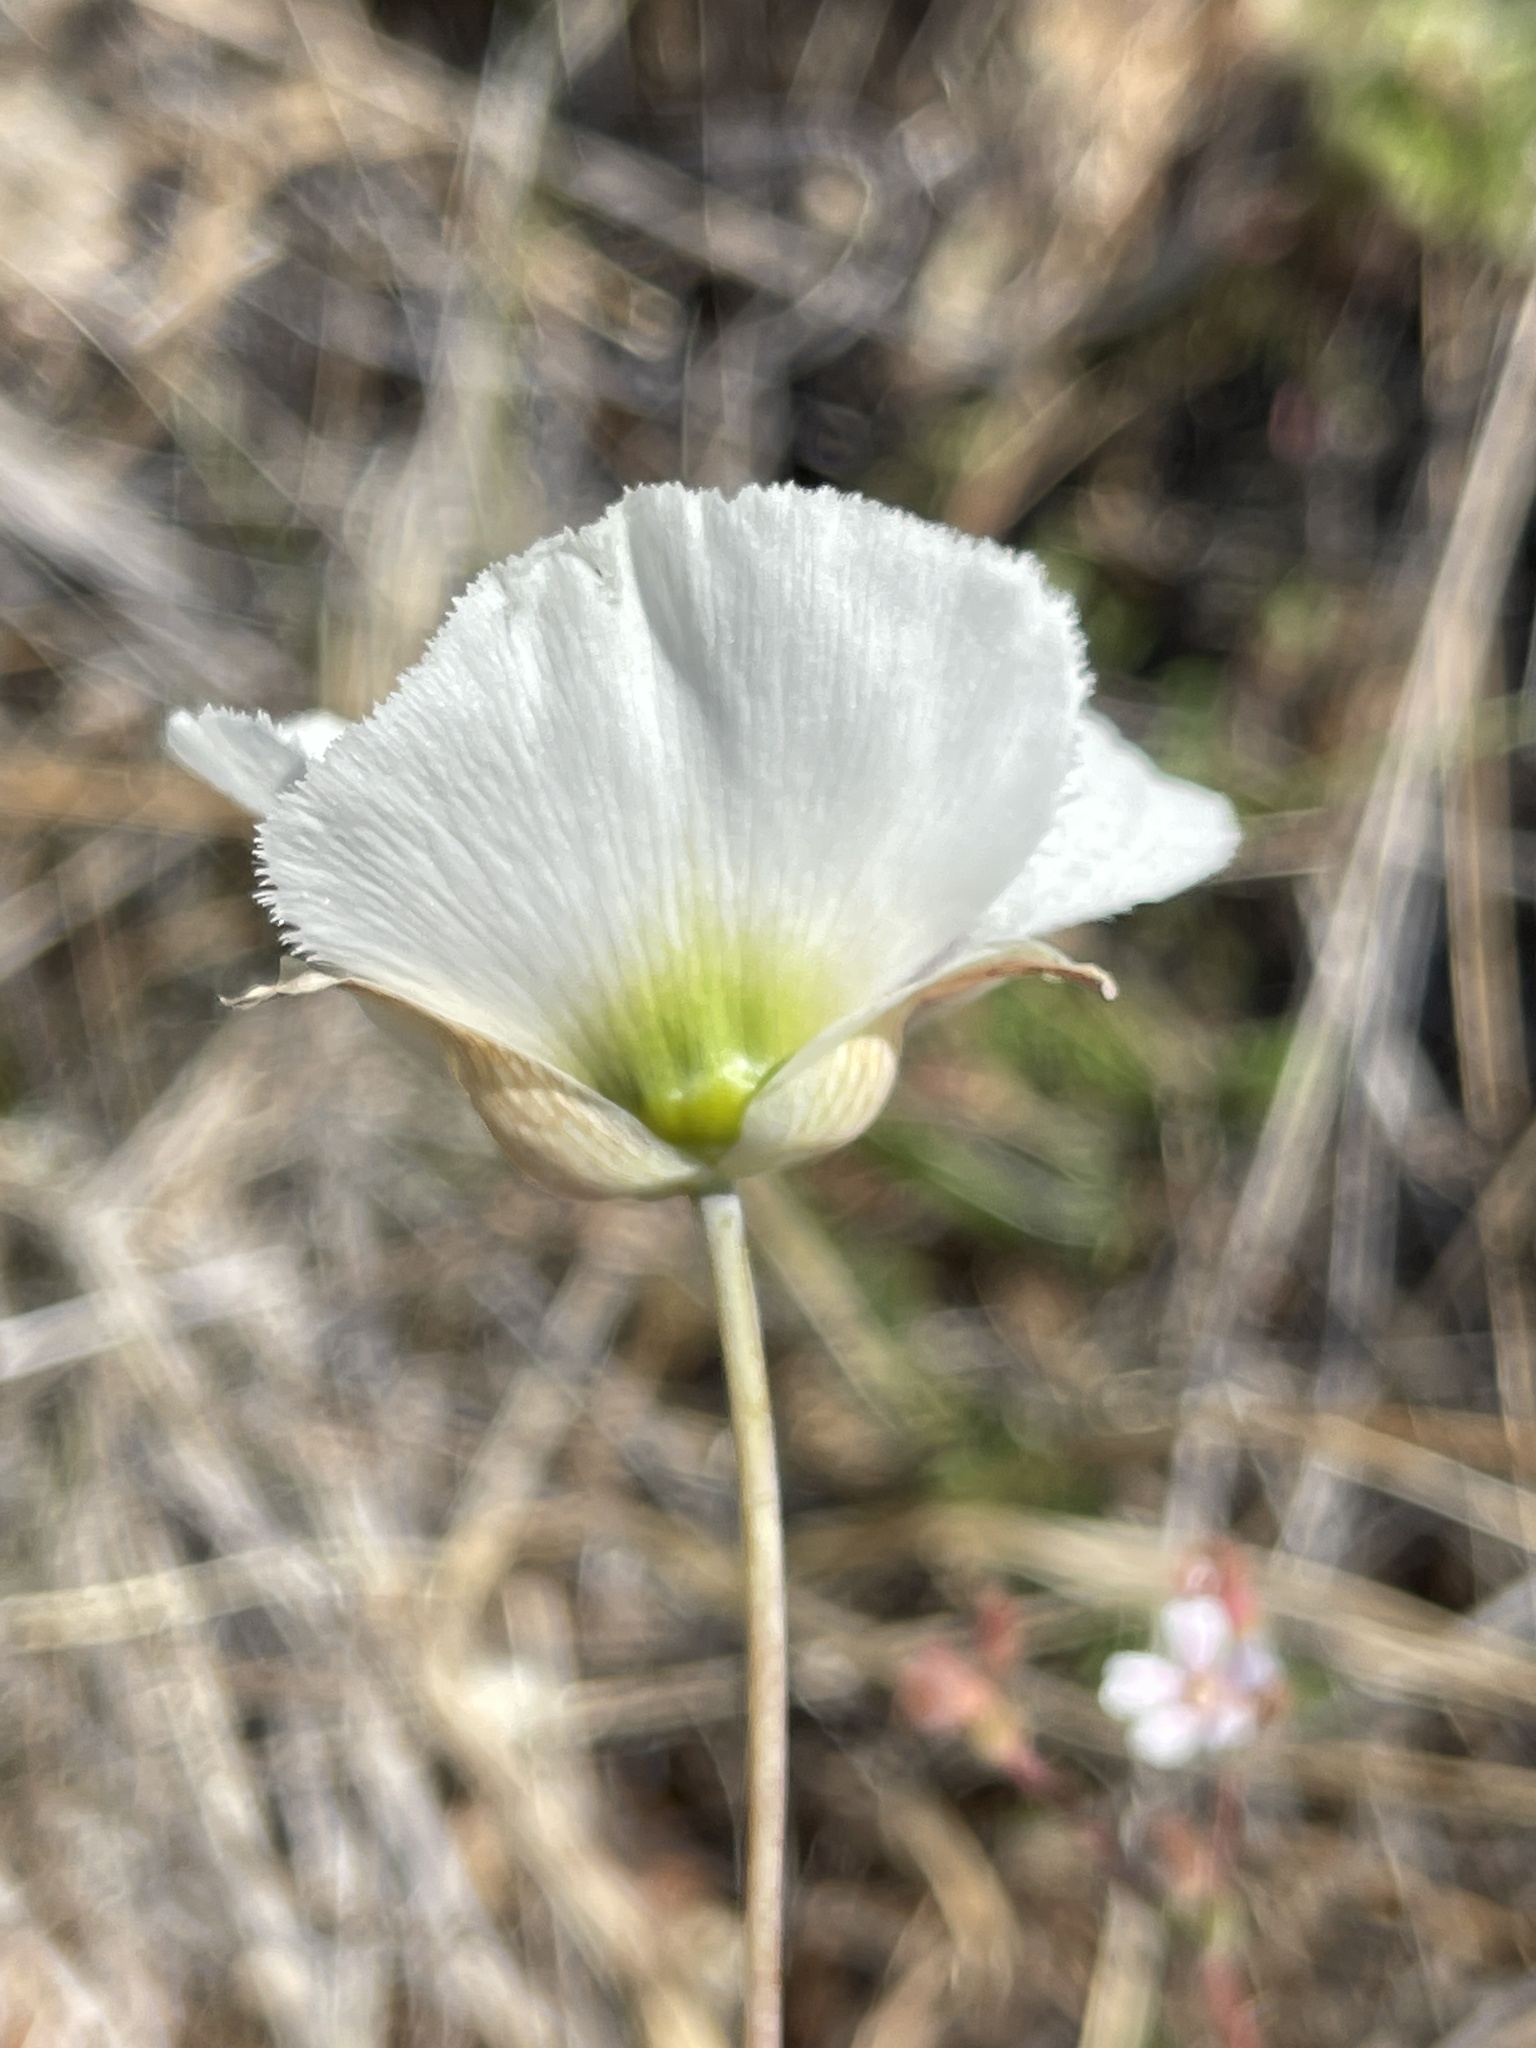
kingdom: Plantae
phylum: Tracheophyta
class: Liliopsida
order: Liliales
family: Liliaceae
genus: Calochortus
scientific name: Calochortus howellii
